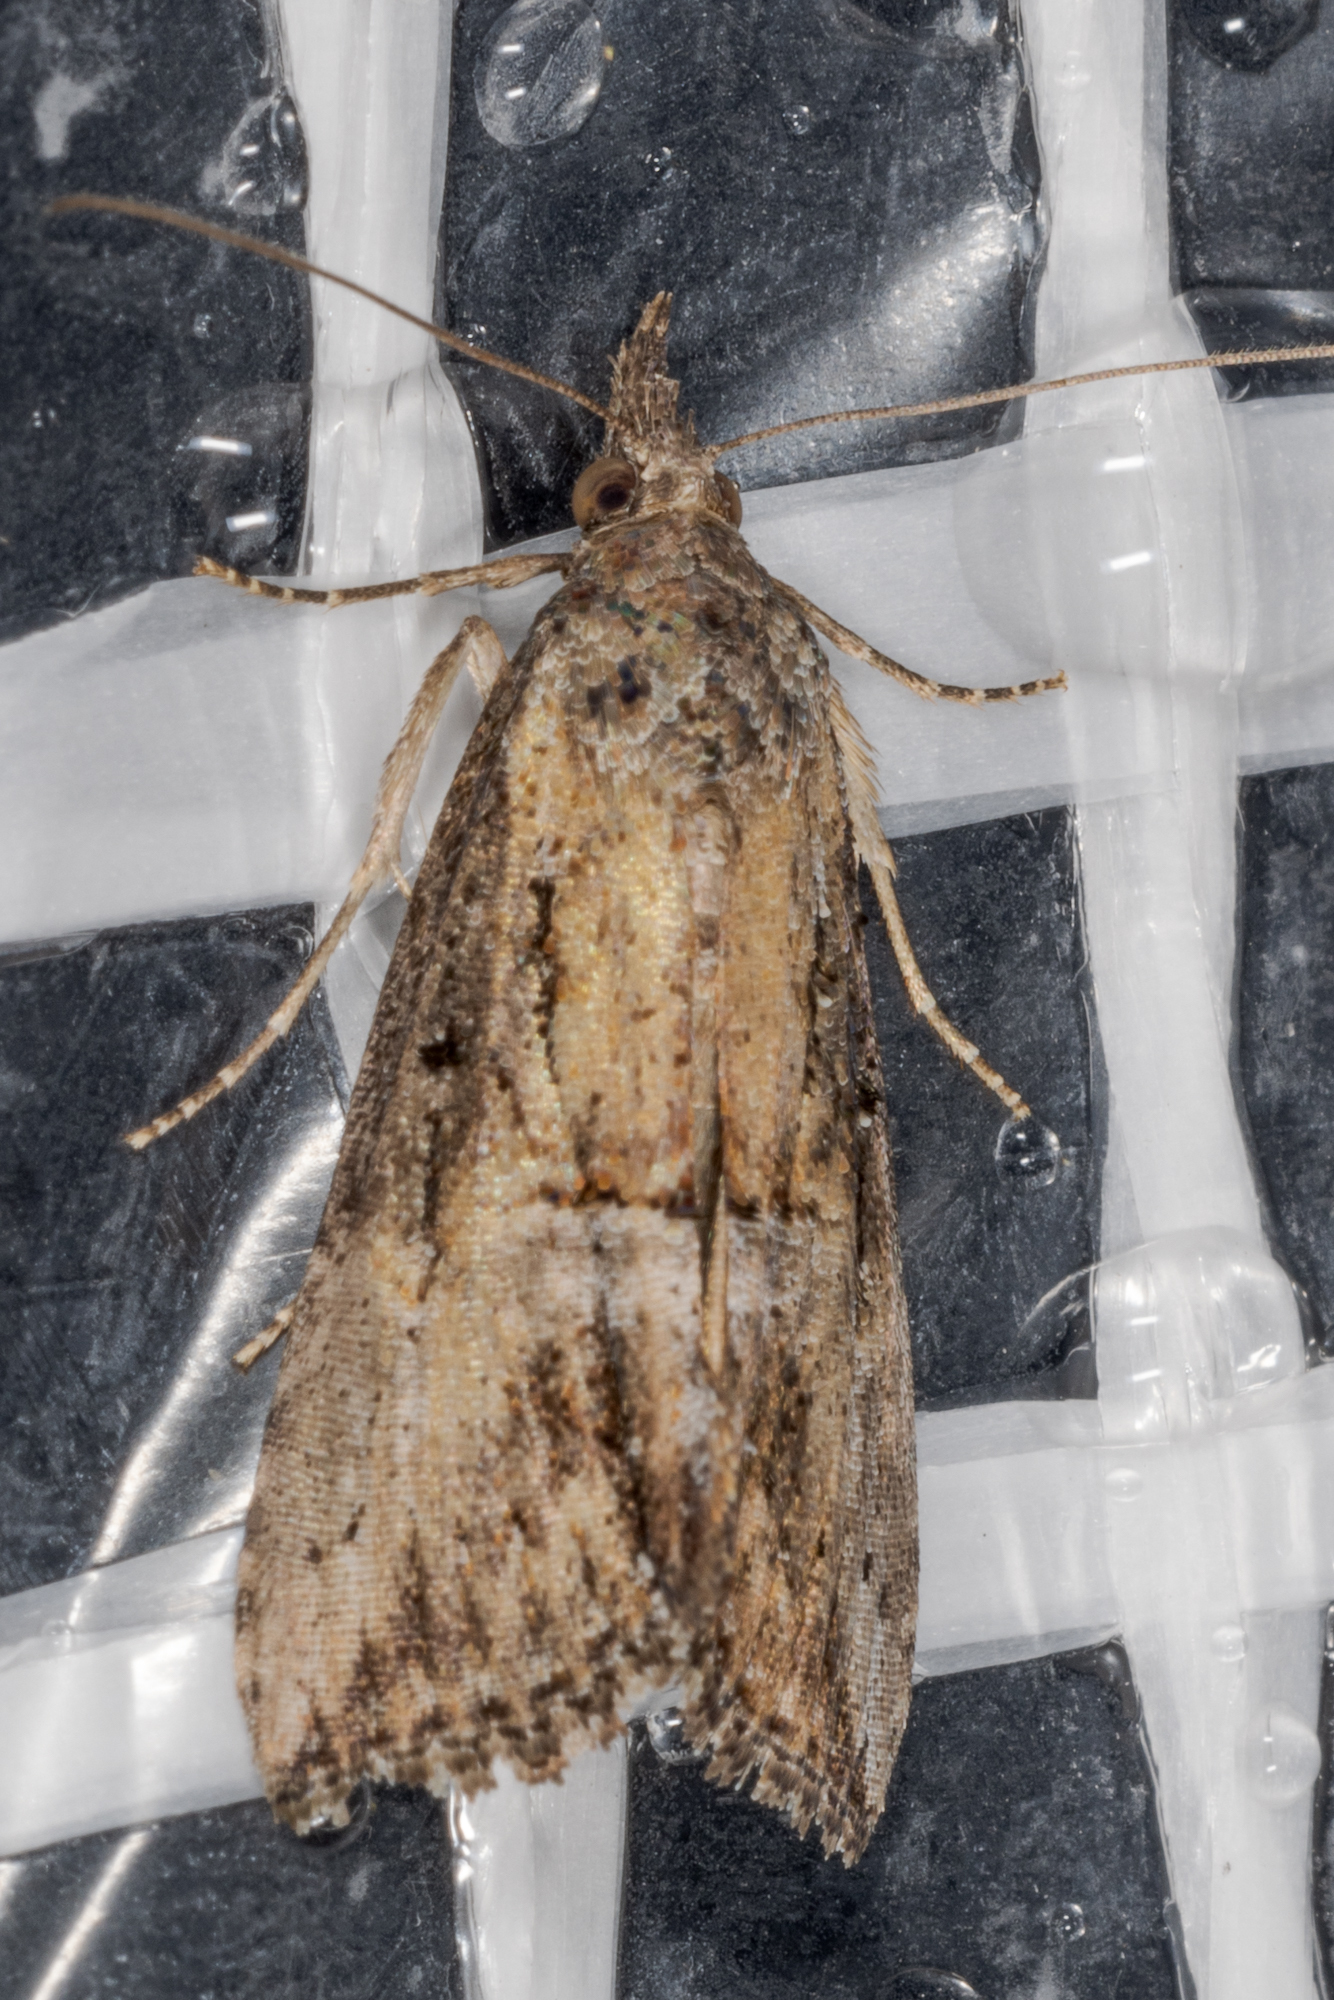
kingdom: Animalia
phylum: Arthropoda
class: Insecta
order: Lepidoptera
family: Erebidae
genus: Hypena
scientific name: Hypena scabra
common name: Green cloverworm
